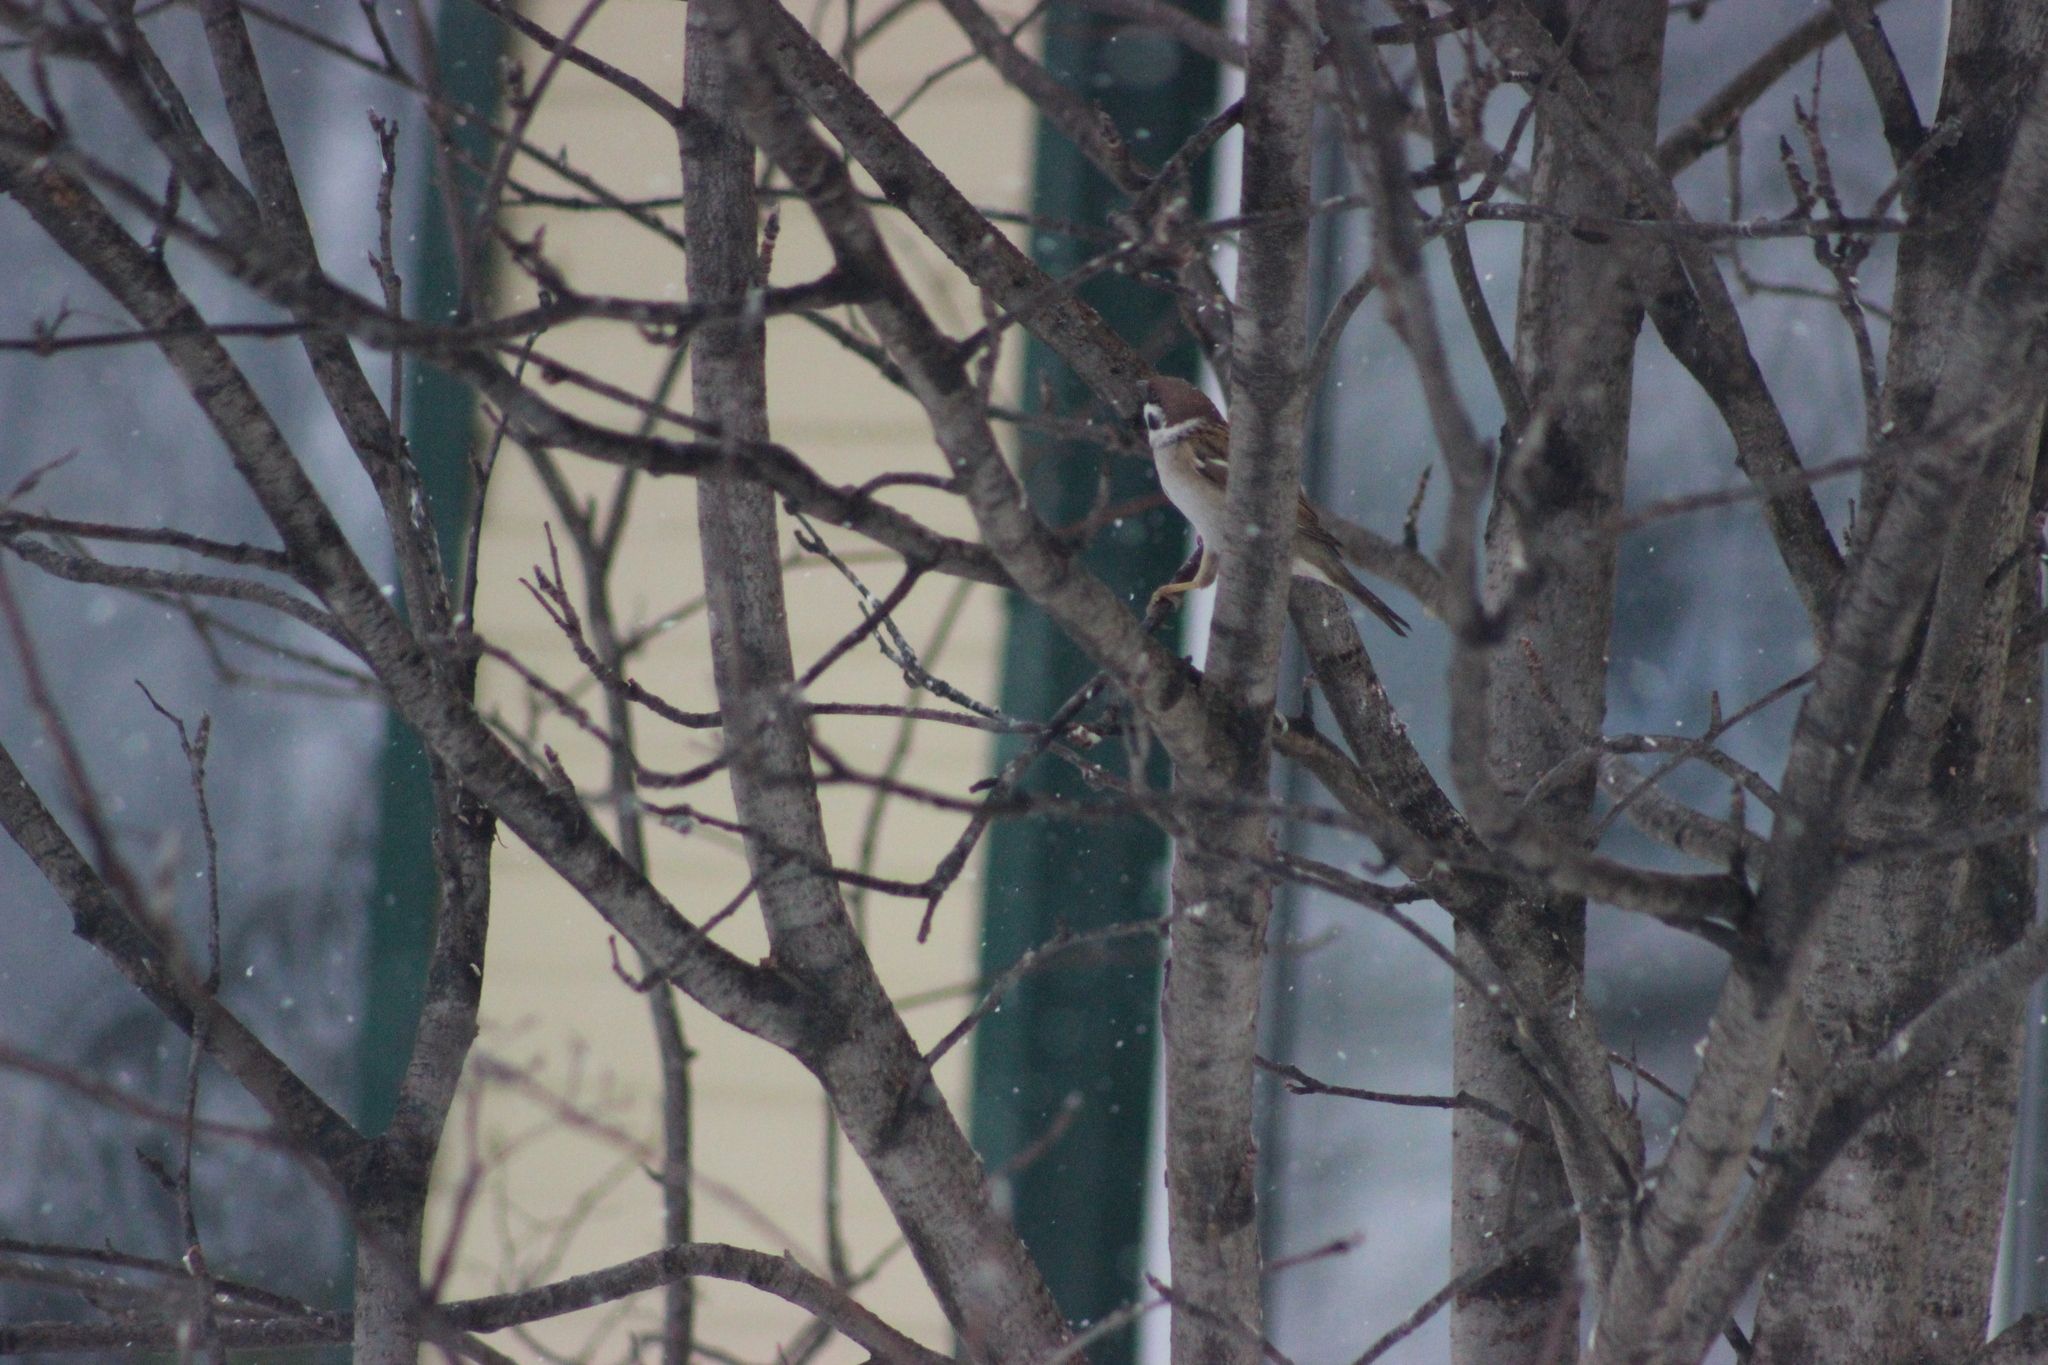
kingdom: Animalia
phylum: Chordata
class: Aves
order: Passeriformes
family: Passeridae
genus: Passer
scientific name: Passer montanus
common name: Eurasian tree sparrow
